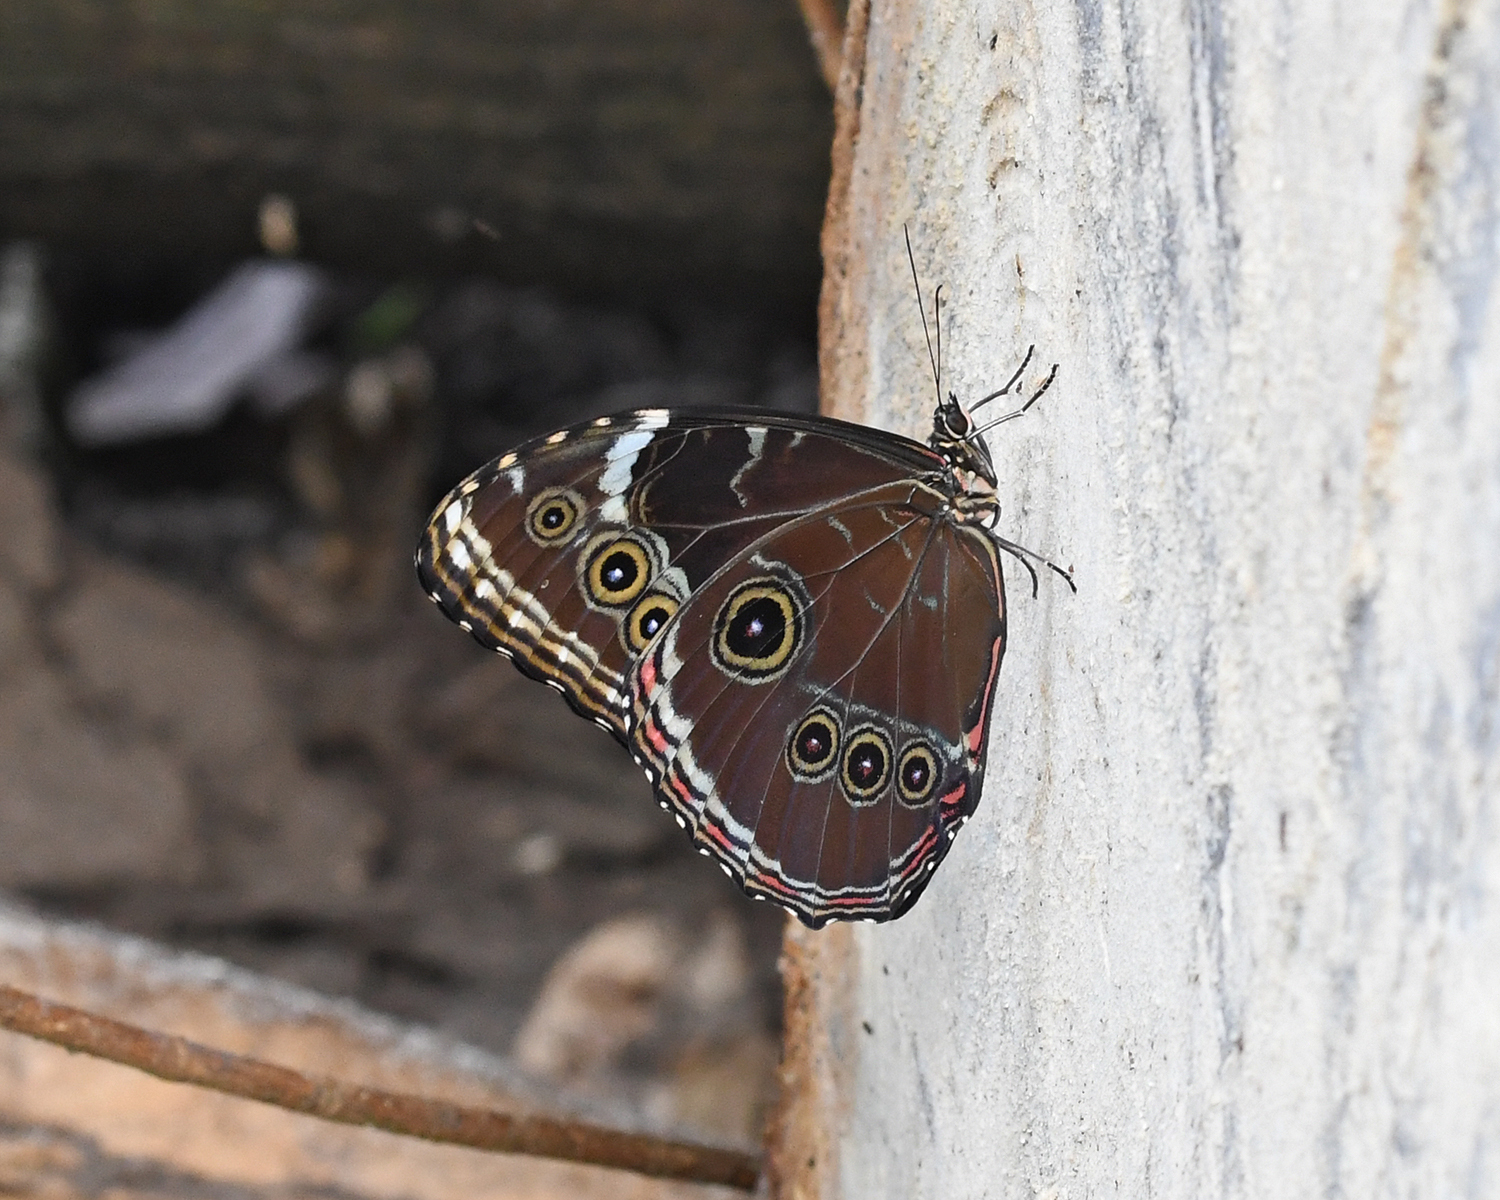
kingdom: Animalia
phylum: Arthropoda
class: Insecta
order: Lepidoptera
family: Nymphalidae
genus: Morpho
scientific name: Morpho helenor
